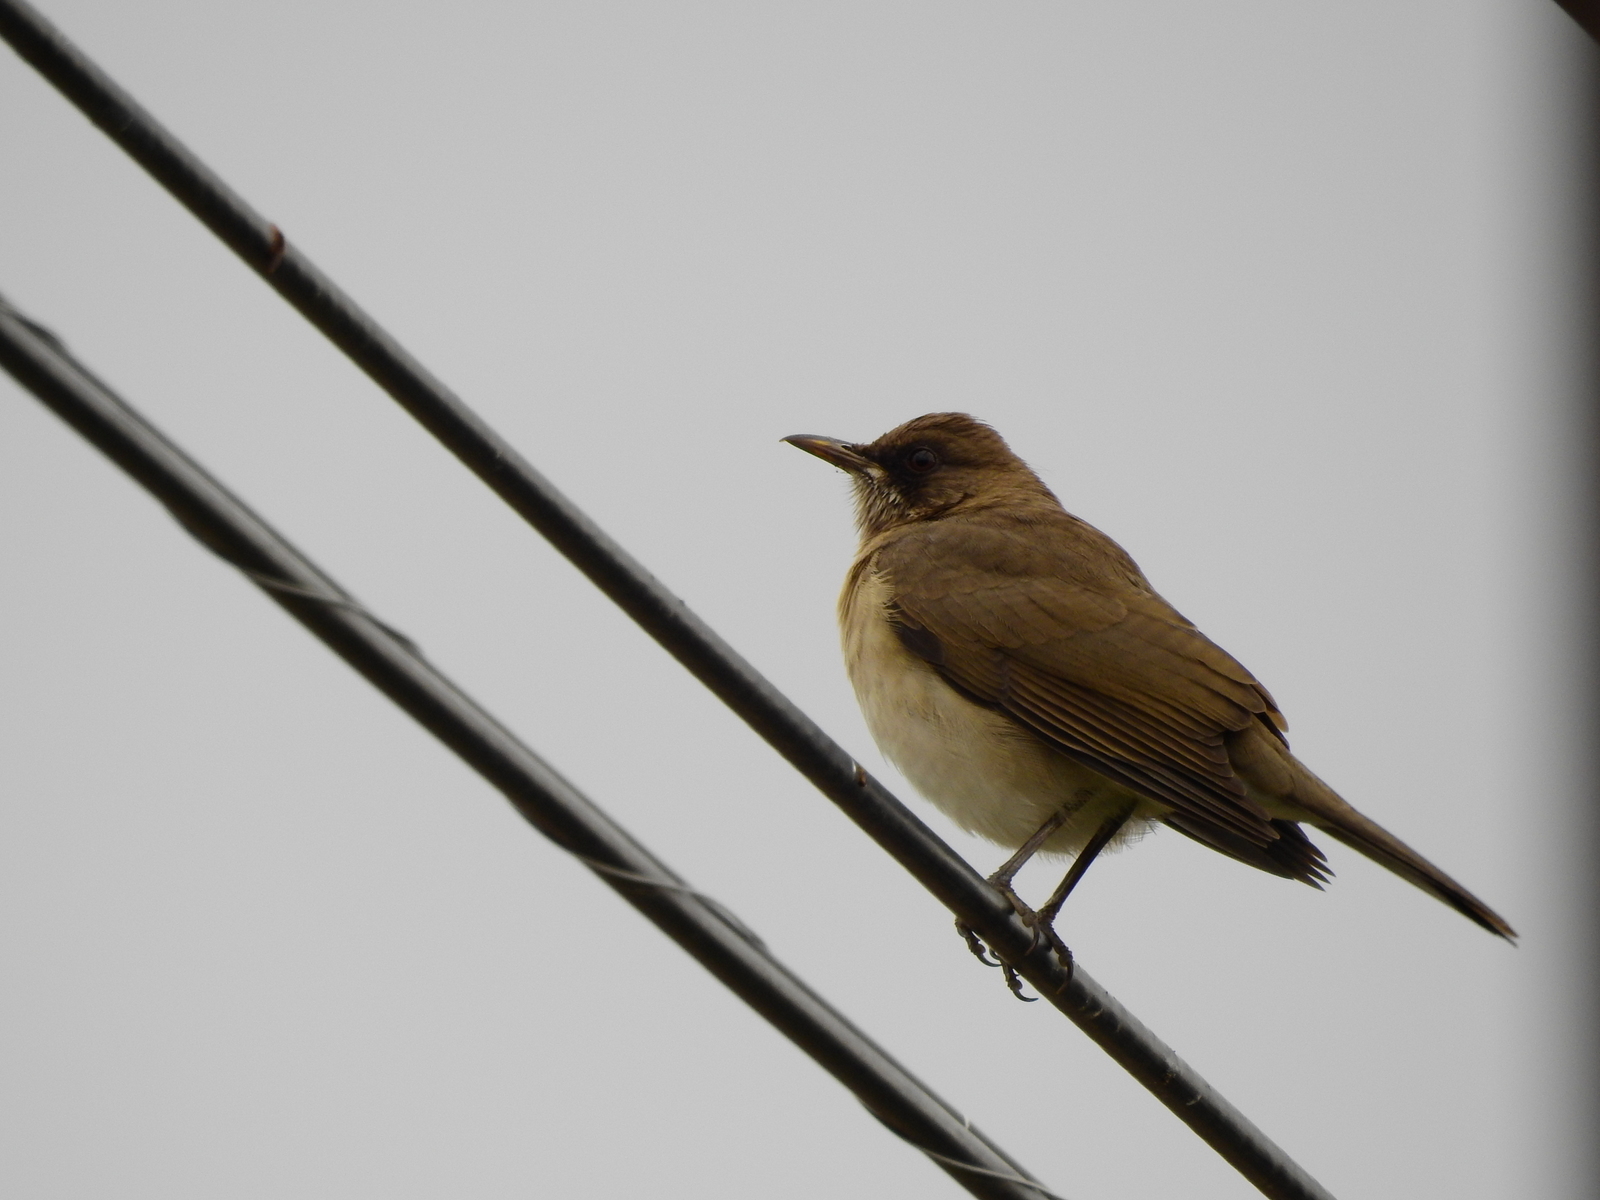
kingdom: Animalia
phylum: Chordata
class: Aves
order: Passeriformes
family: Turdidae
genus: Turdus
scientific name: Turdus amaurochalinus
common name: Creamy-bellied thrush
